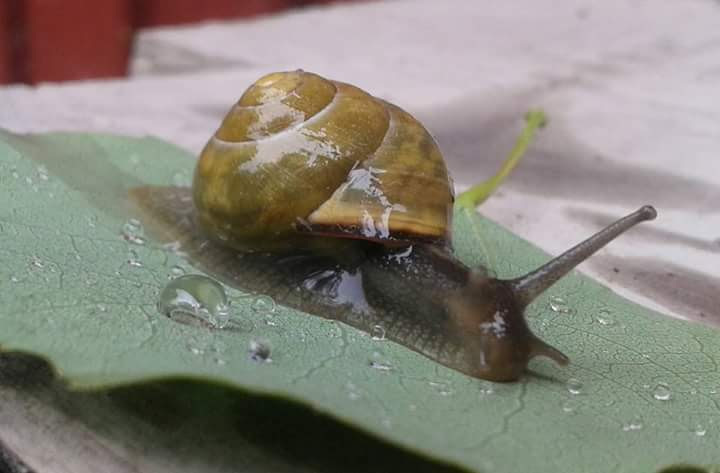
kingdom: Animalia
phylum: Mollusca
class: Gastropoda
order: Stylommatophora
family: Helicidae
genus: Cepaea
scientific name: Cepaea nemoralis
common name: Grovesnail
